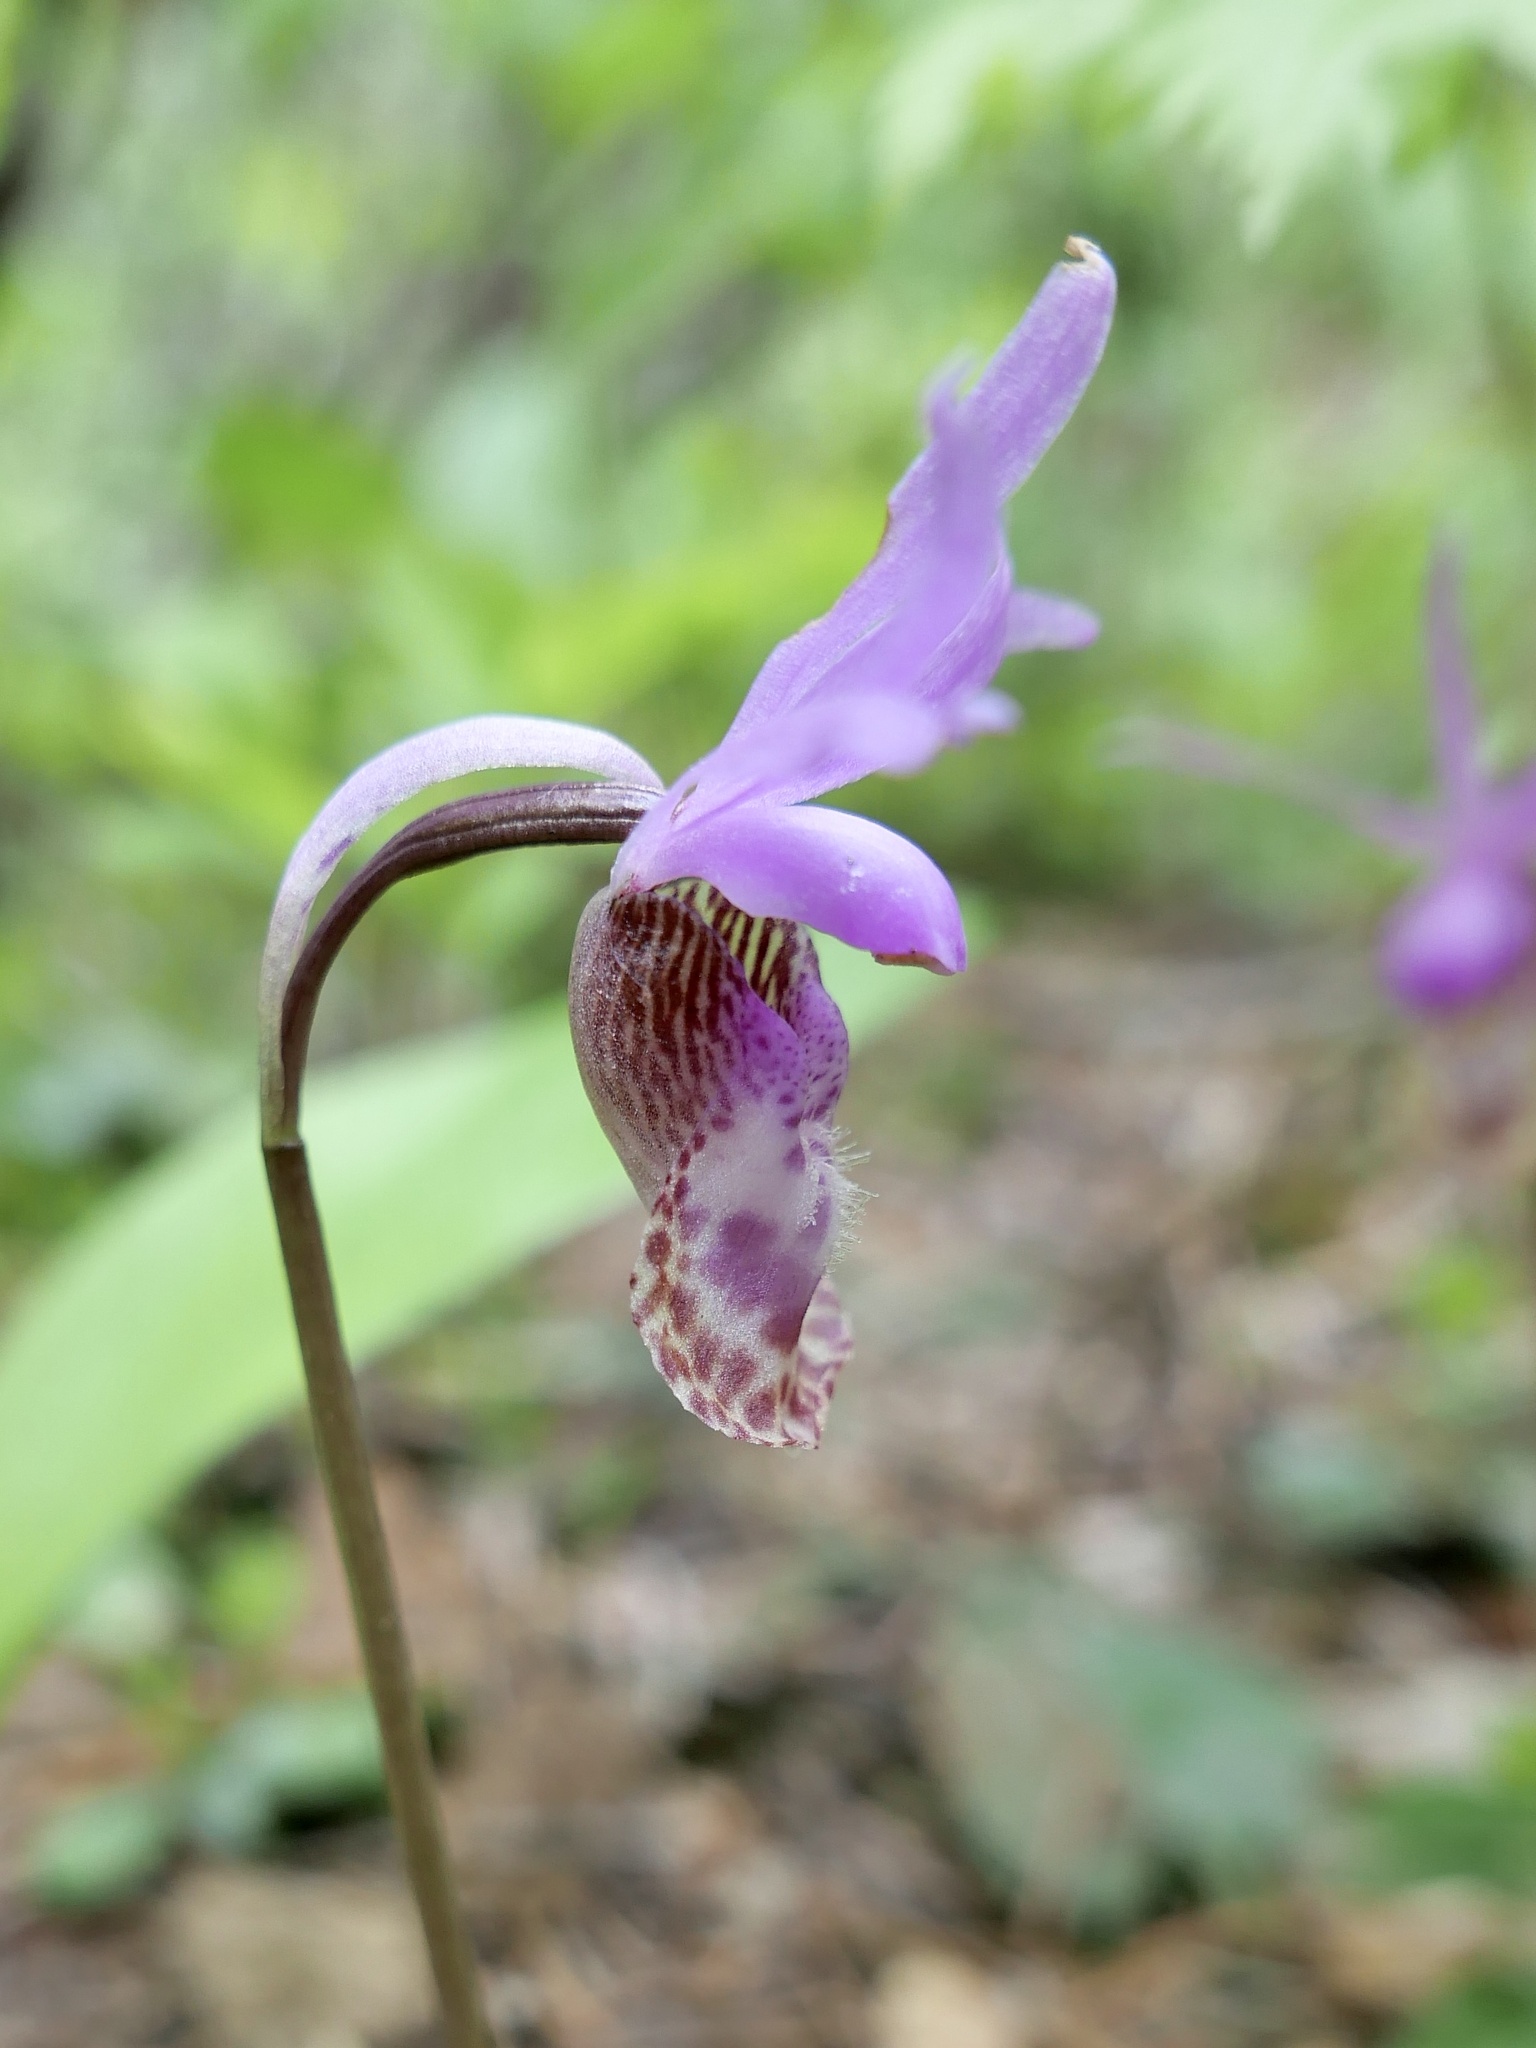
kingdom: Plantae
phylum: Tracheophyta
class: Liliopsida
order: Asparagales
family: Orchidaceae
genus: Calypso
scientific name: Calypso bulbosa
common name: Calypso
